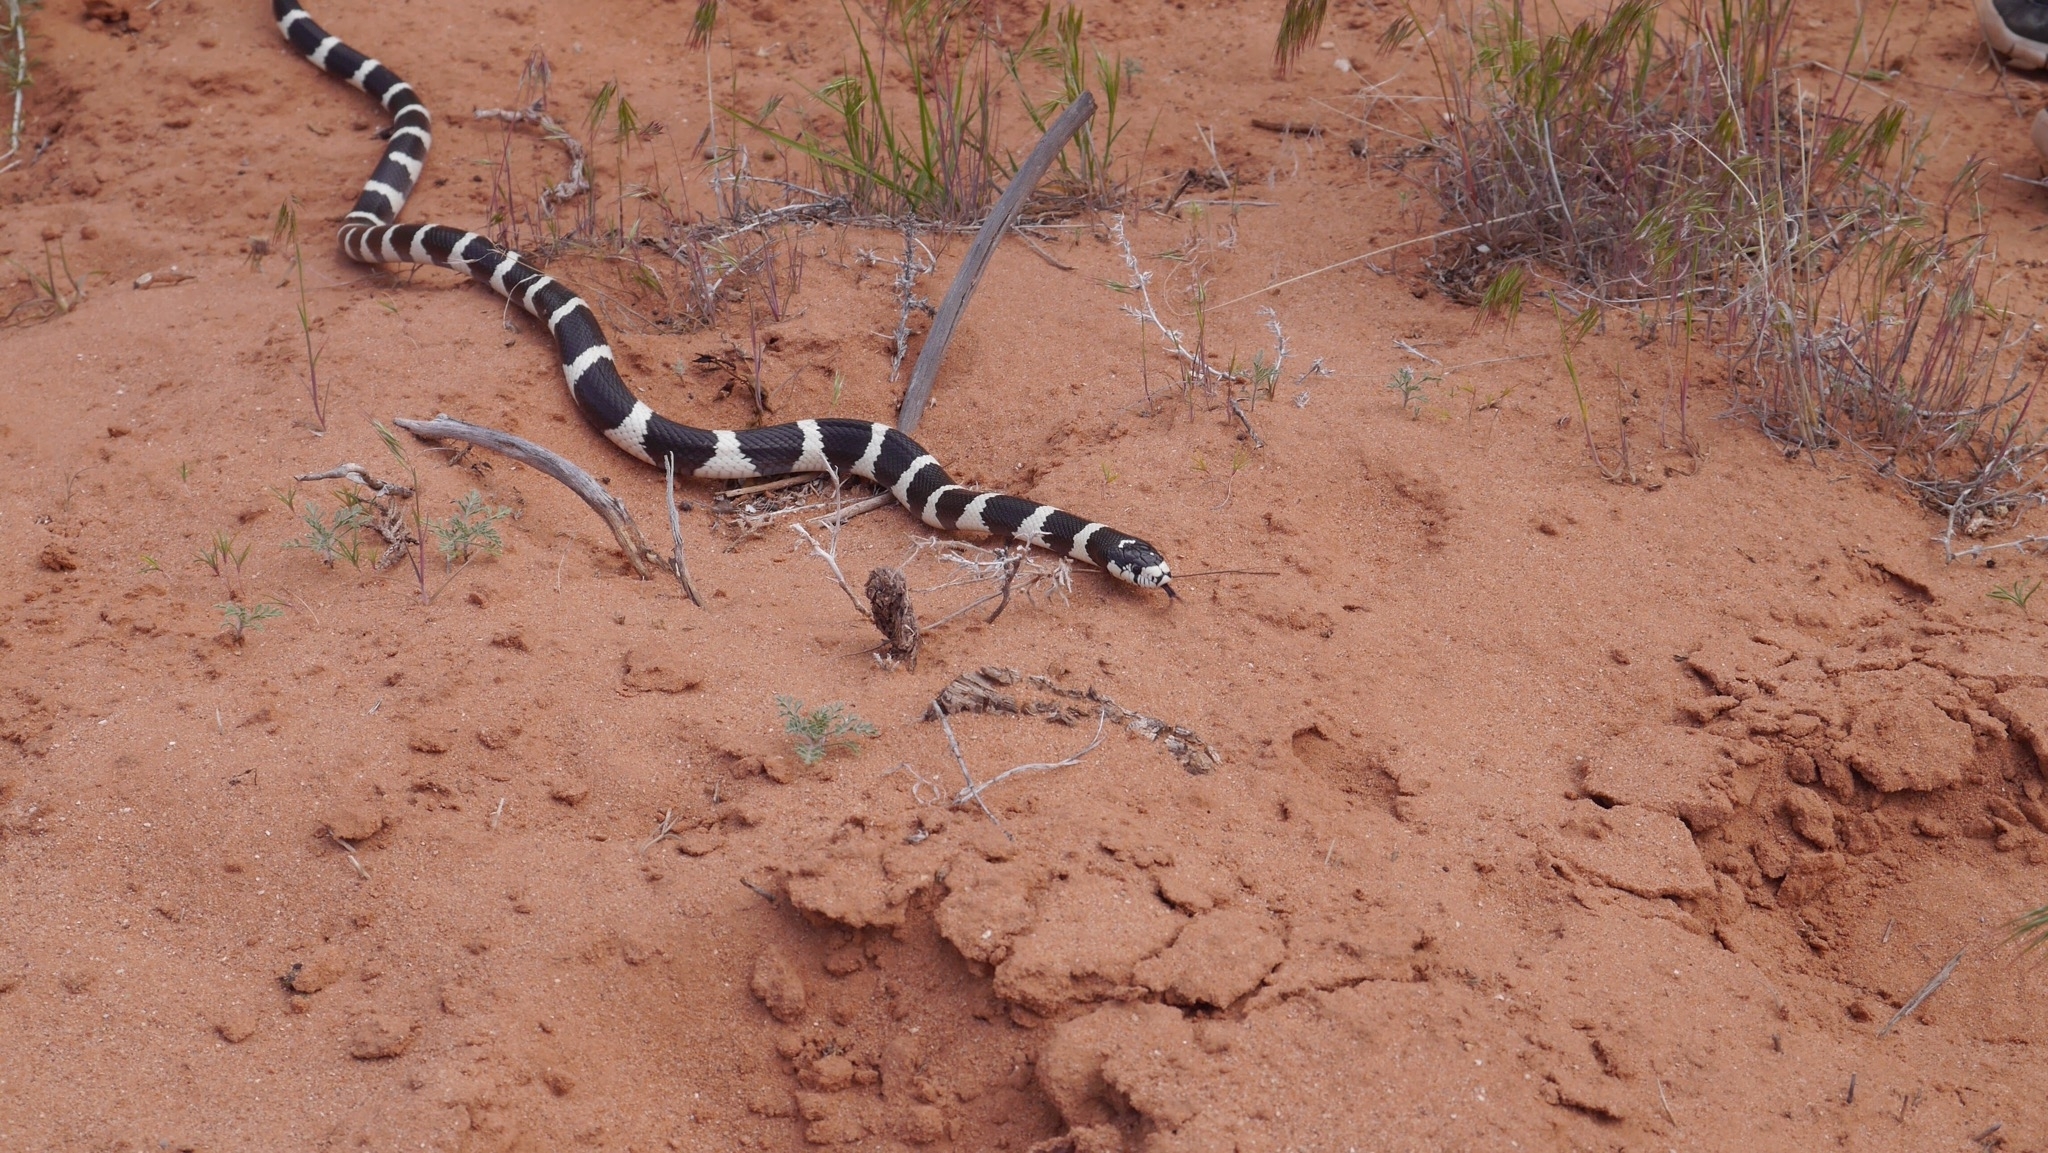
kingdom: Animalia
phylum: Chordata
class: Squamata
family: Colubridae
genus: Lampropeltis
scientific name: Lampropeltis californiae
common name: California kingsnake
